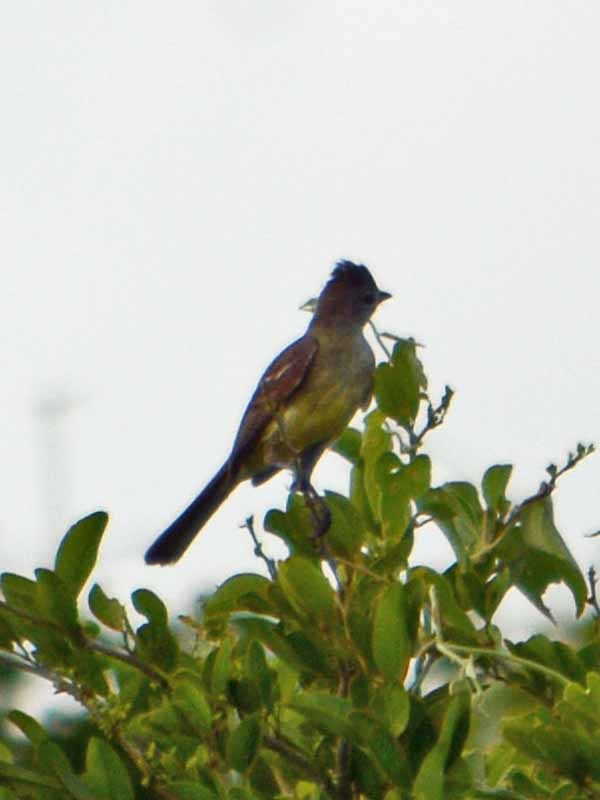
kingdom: Animalia
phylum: Chordata
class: Aves
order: Passeriformes
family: Tyrannidae
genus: Elaenia
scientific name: Elaenia flavogaster
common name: Yellow-bellied elaenia
